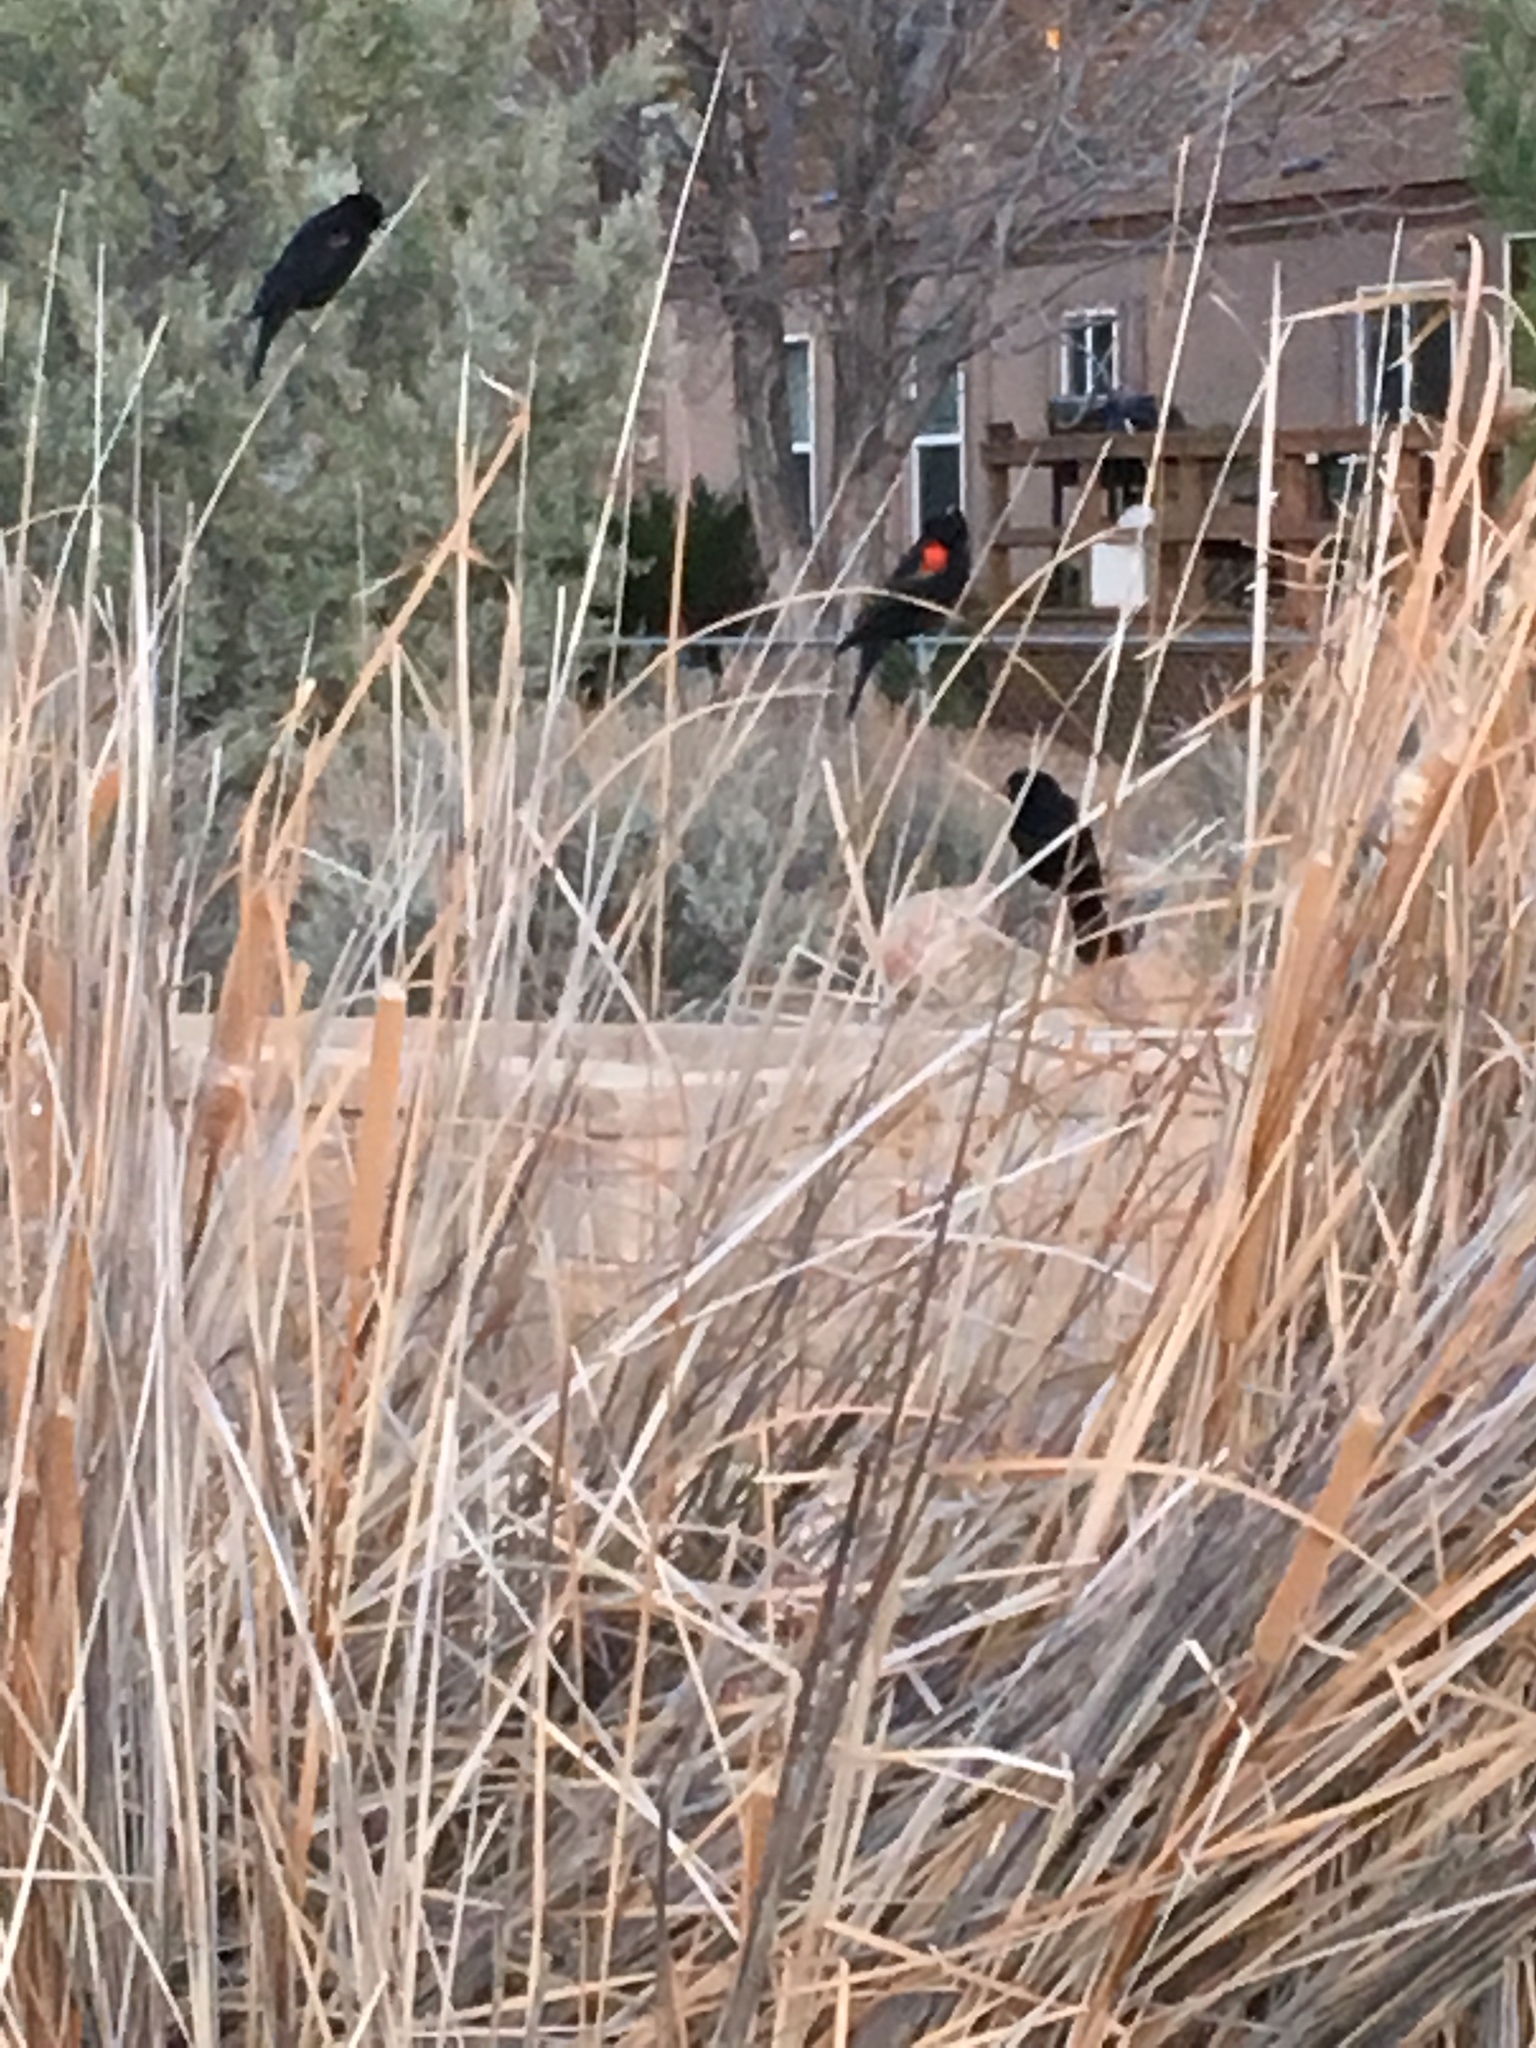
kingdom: Animalia
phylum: Chordata
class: Aves
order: Passeriformes
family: Icteridae
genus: Agelaius
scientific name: Agelaius phoeniceus
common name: Red-winged blackbird
